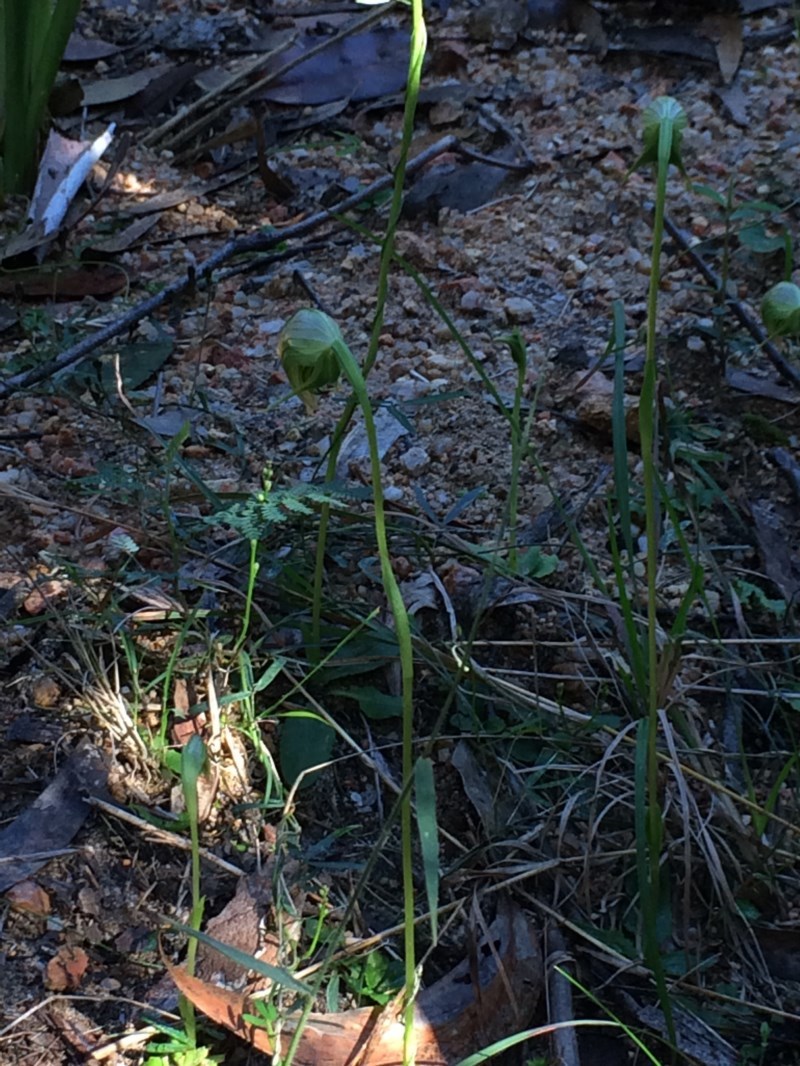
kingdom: Plantae
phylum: Tracheophyta
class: Liliopsida
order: Asparagales
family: Orchidaceae
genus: Pterostylis
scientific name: Pterostylis nutans
